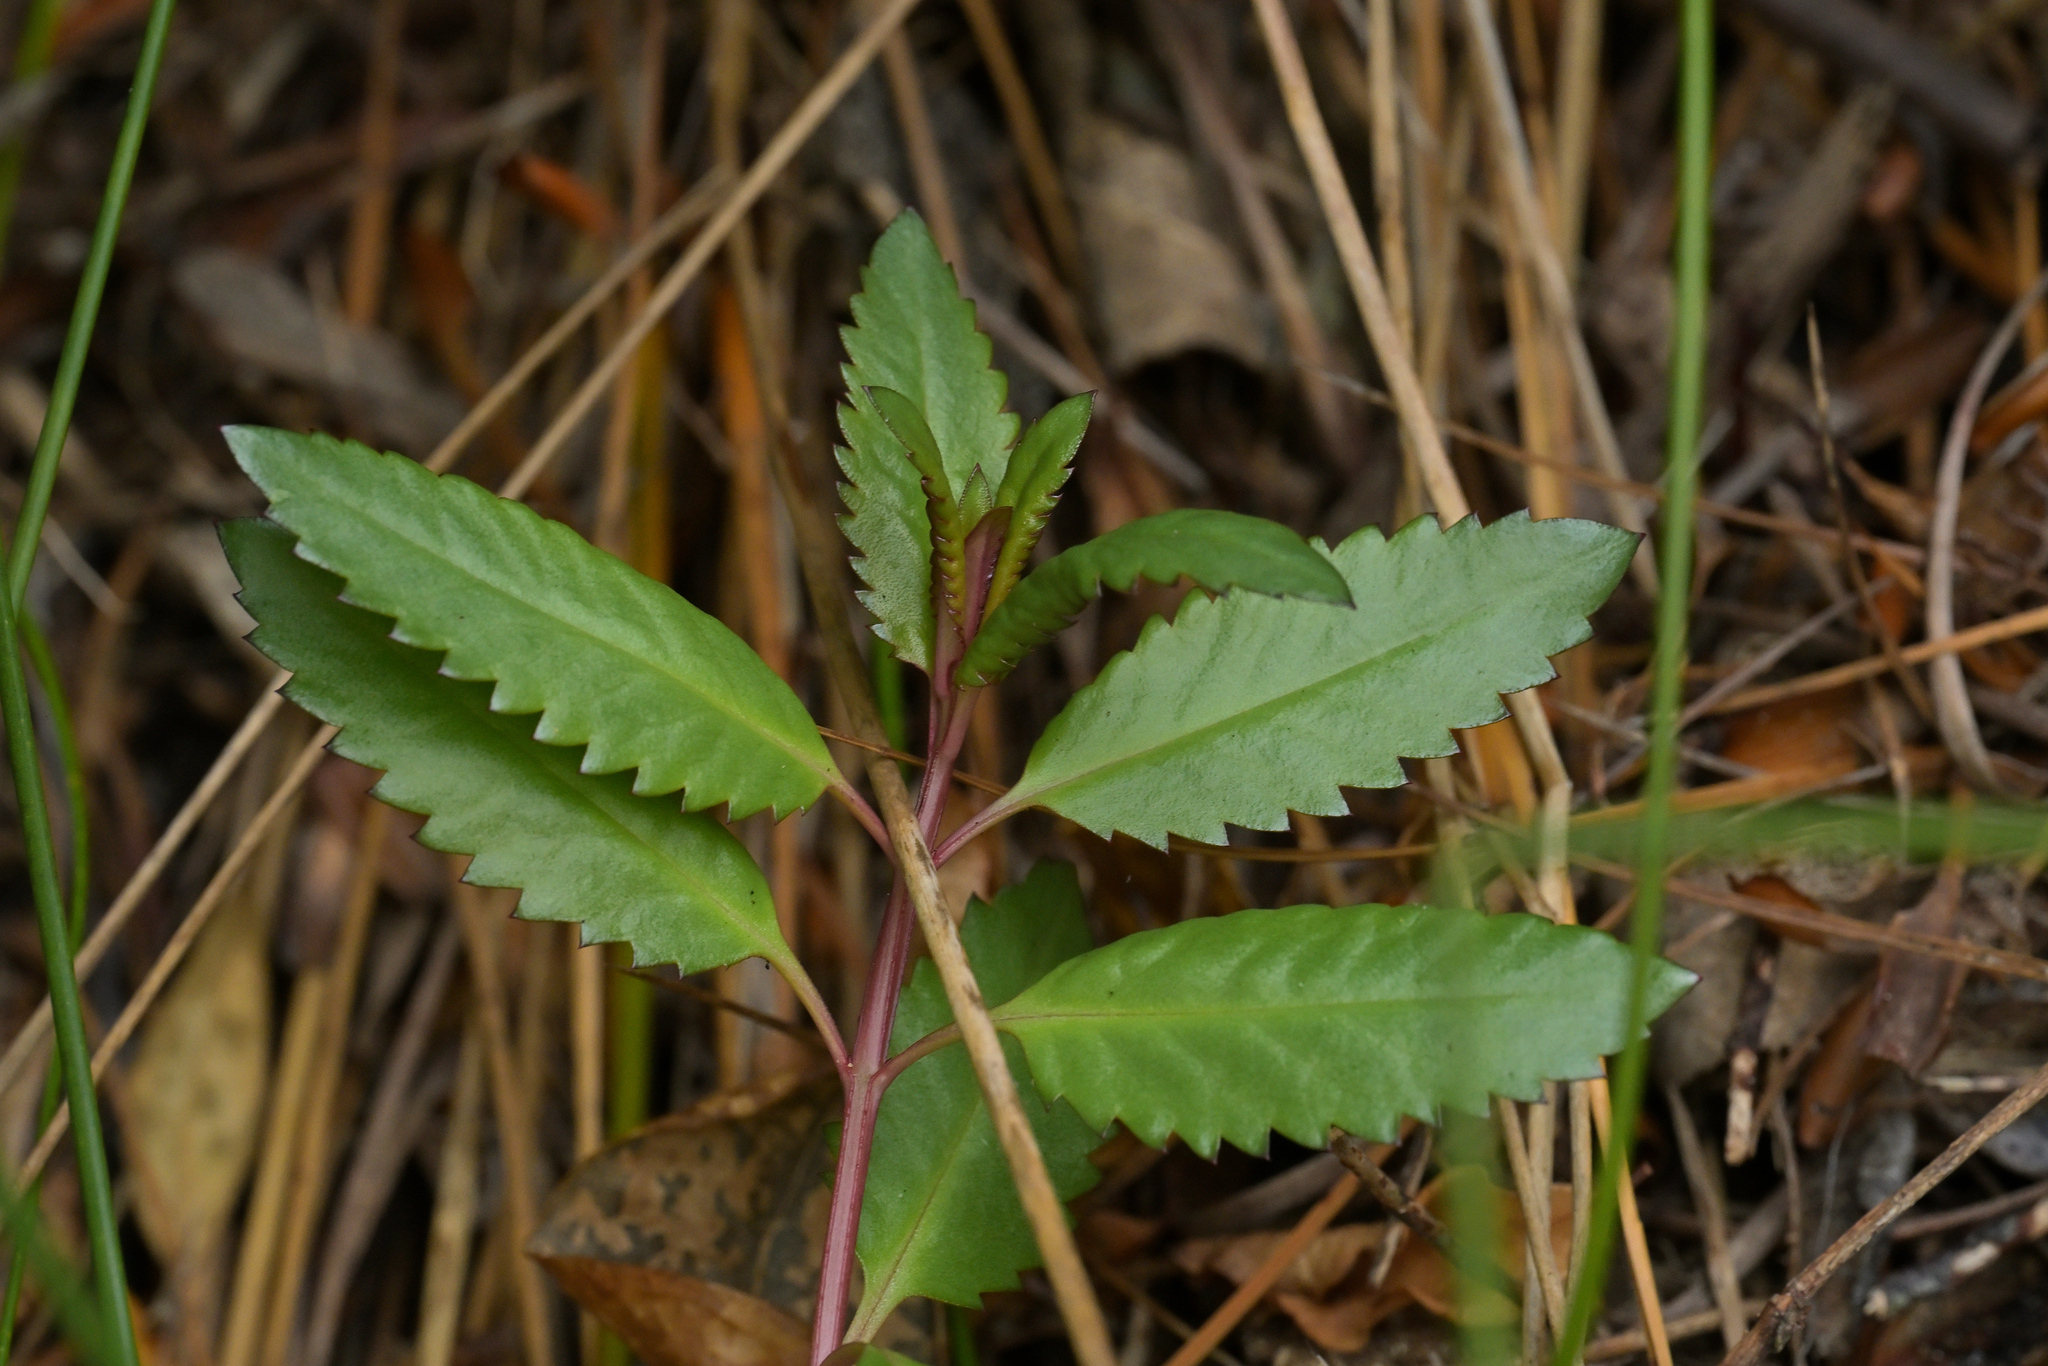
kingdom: Plantae
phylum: Tracheophyta
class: Magnoliopsida
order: Saxifragales
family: Haloragaceae
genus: Haloragis
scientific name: Haloragis erecta
